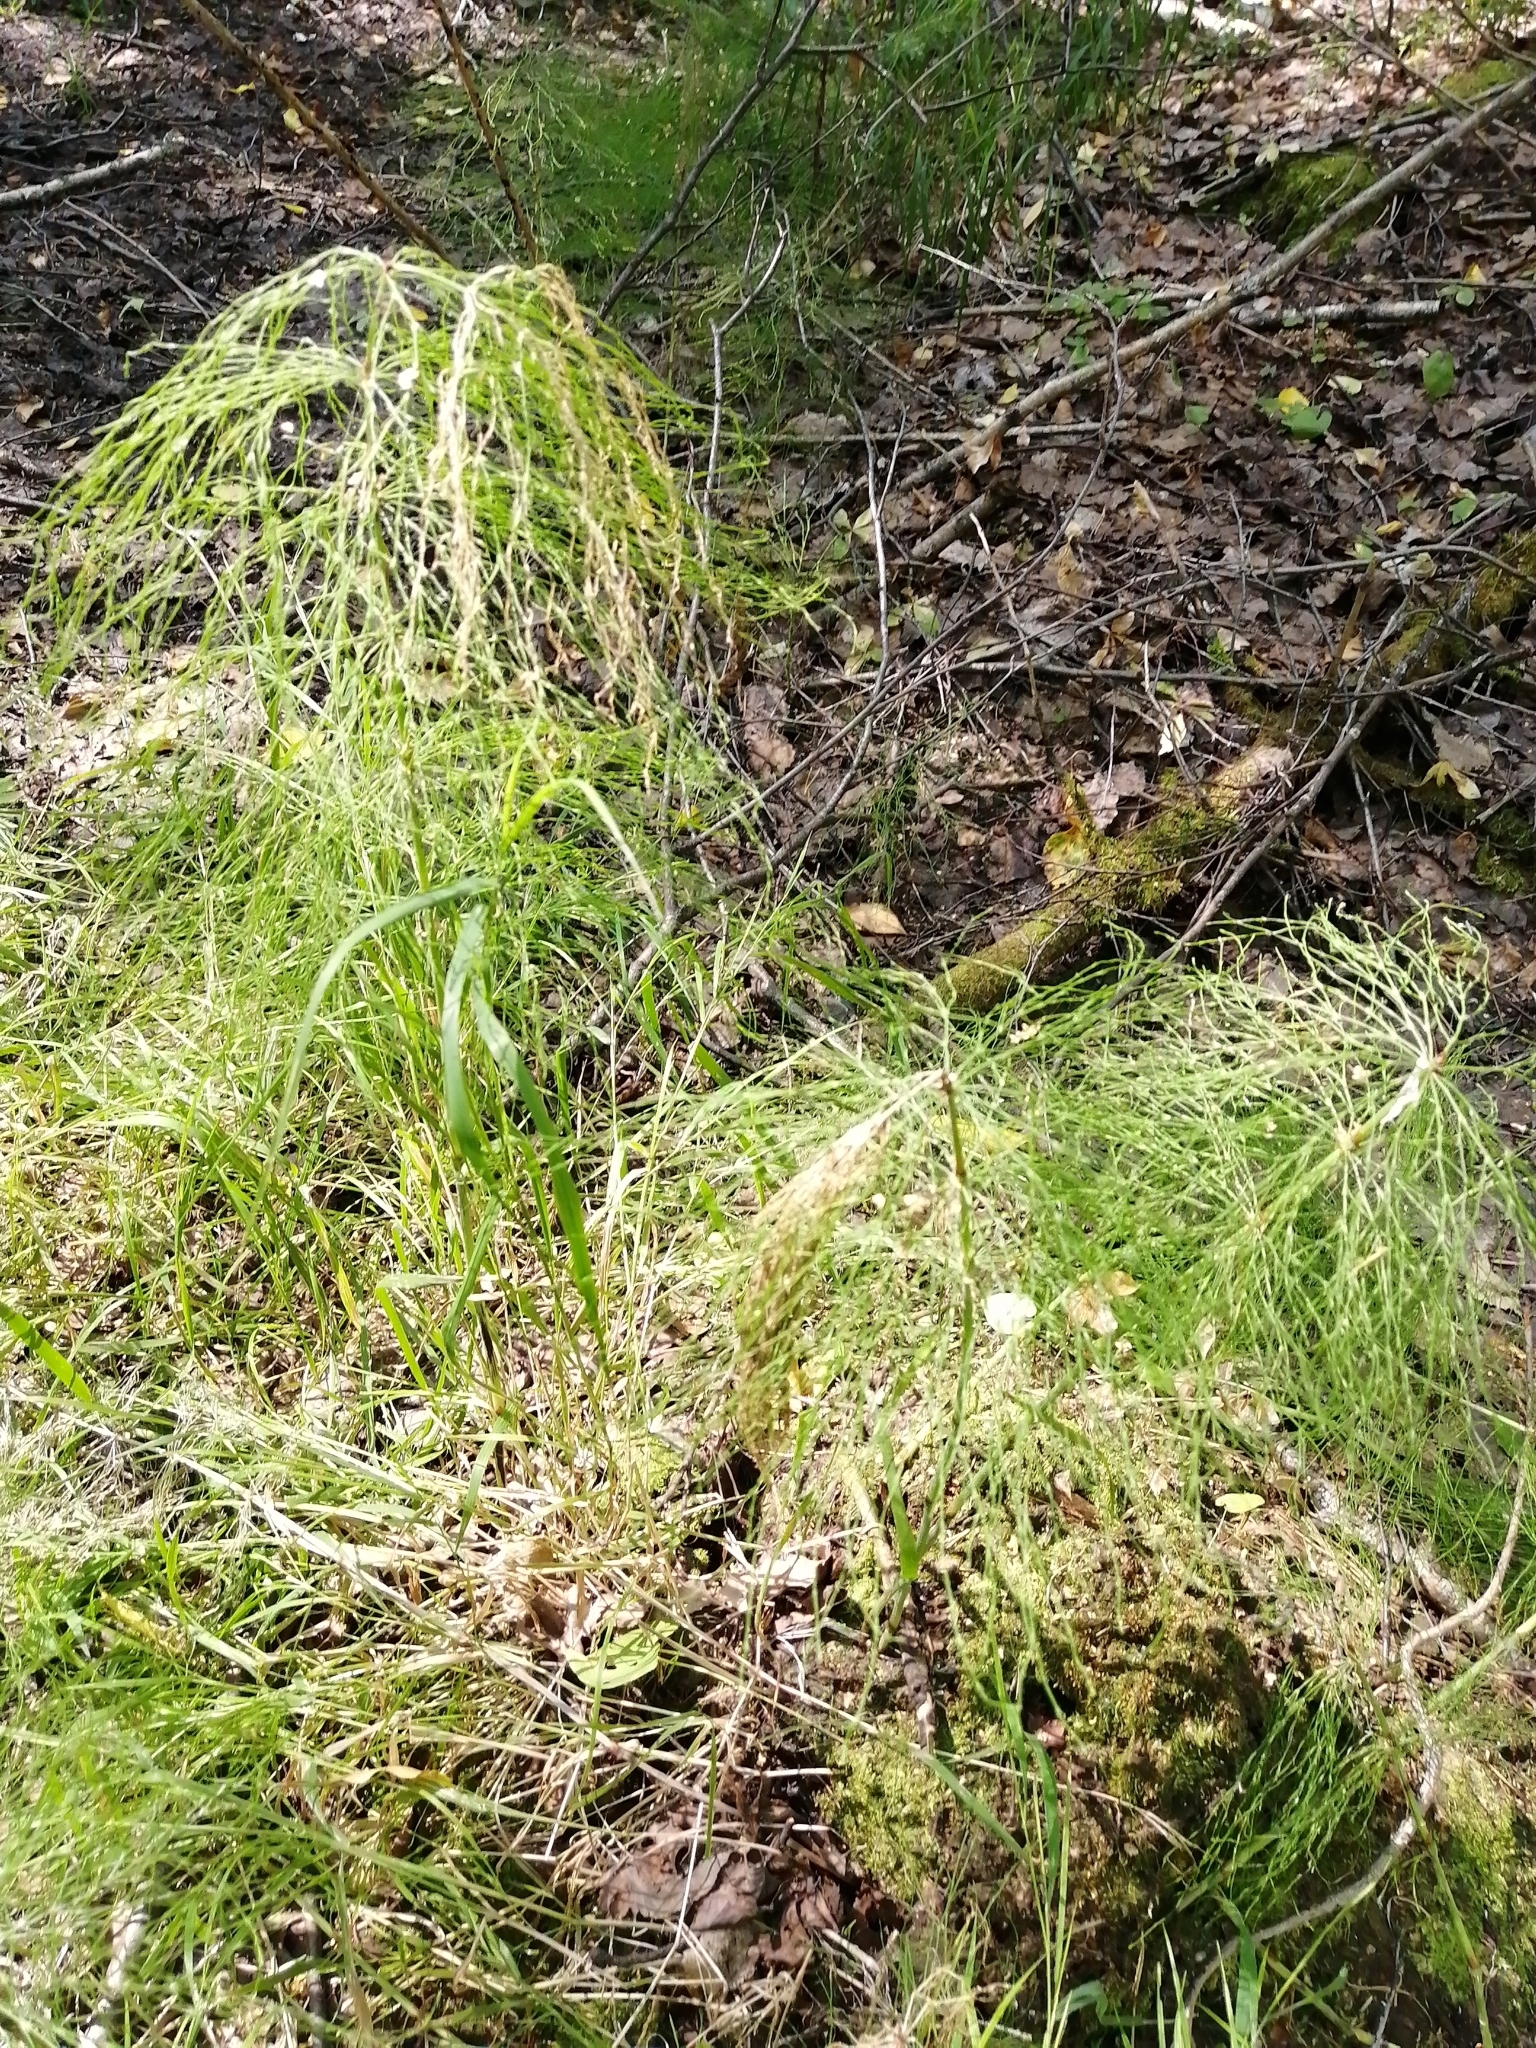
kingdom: Plantae
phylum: Tracheophyta
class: Polypodiopsida
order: Equisetales
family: Equisetaceae
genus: Equisetum
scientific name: Equisetum sylvaticum
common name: Wood horsetail
